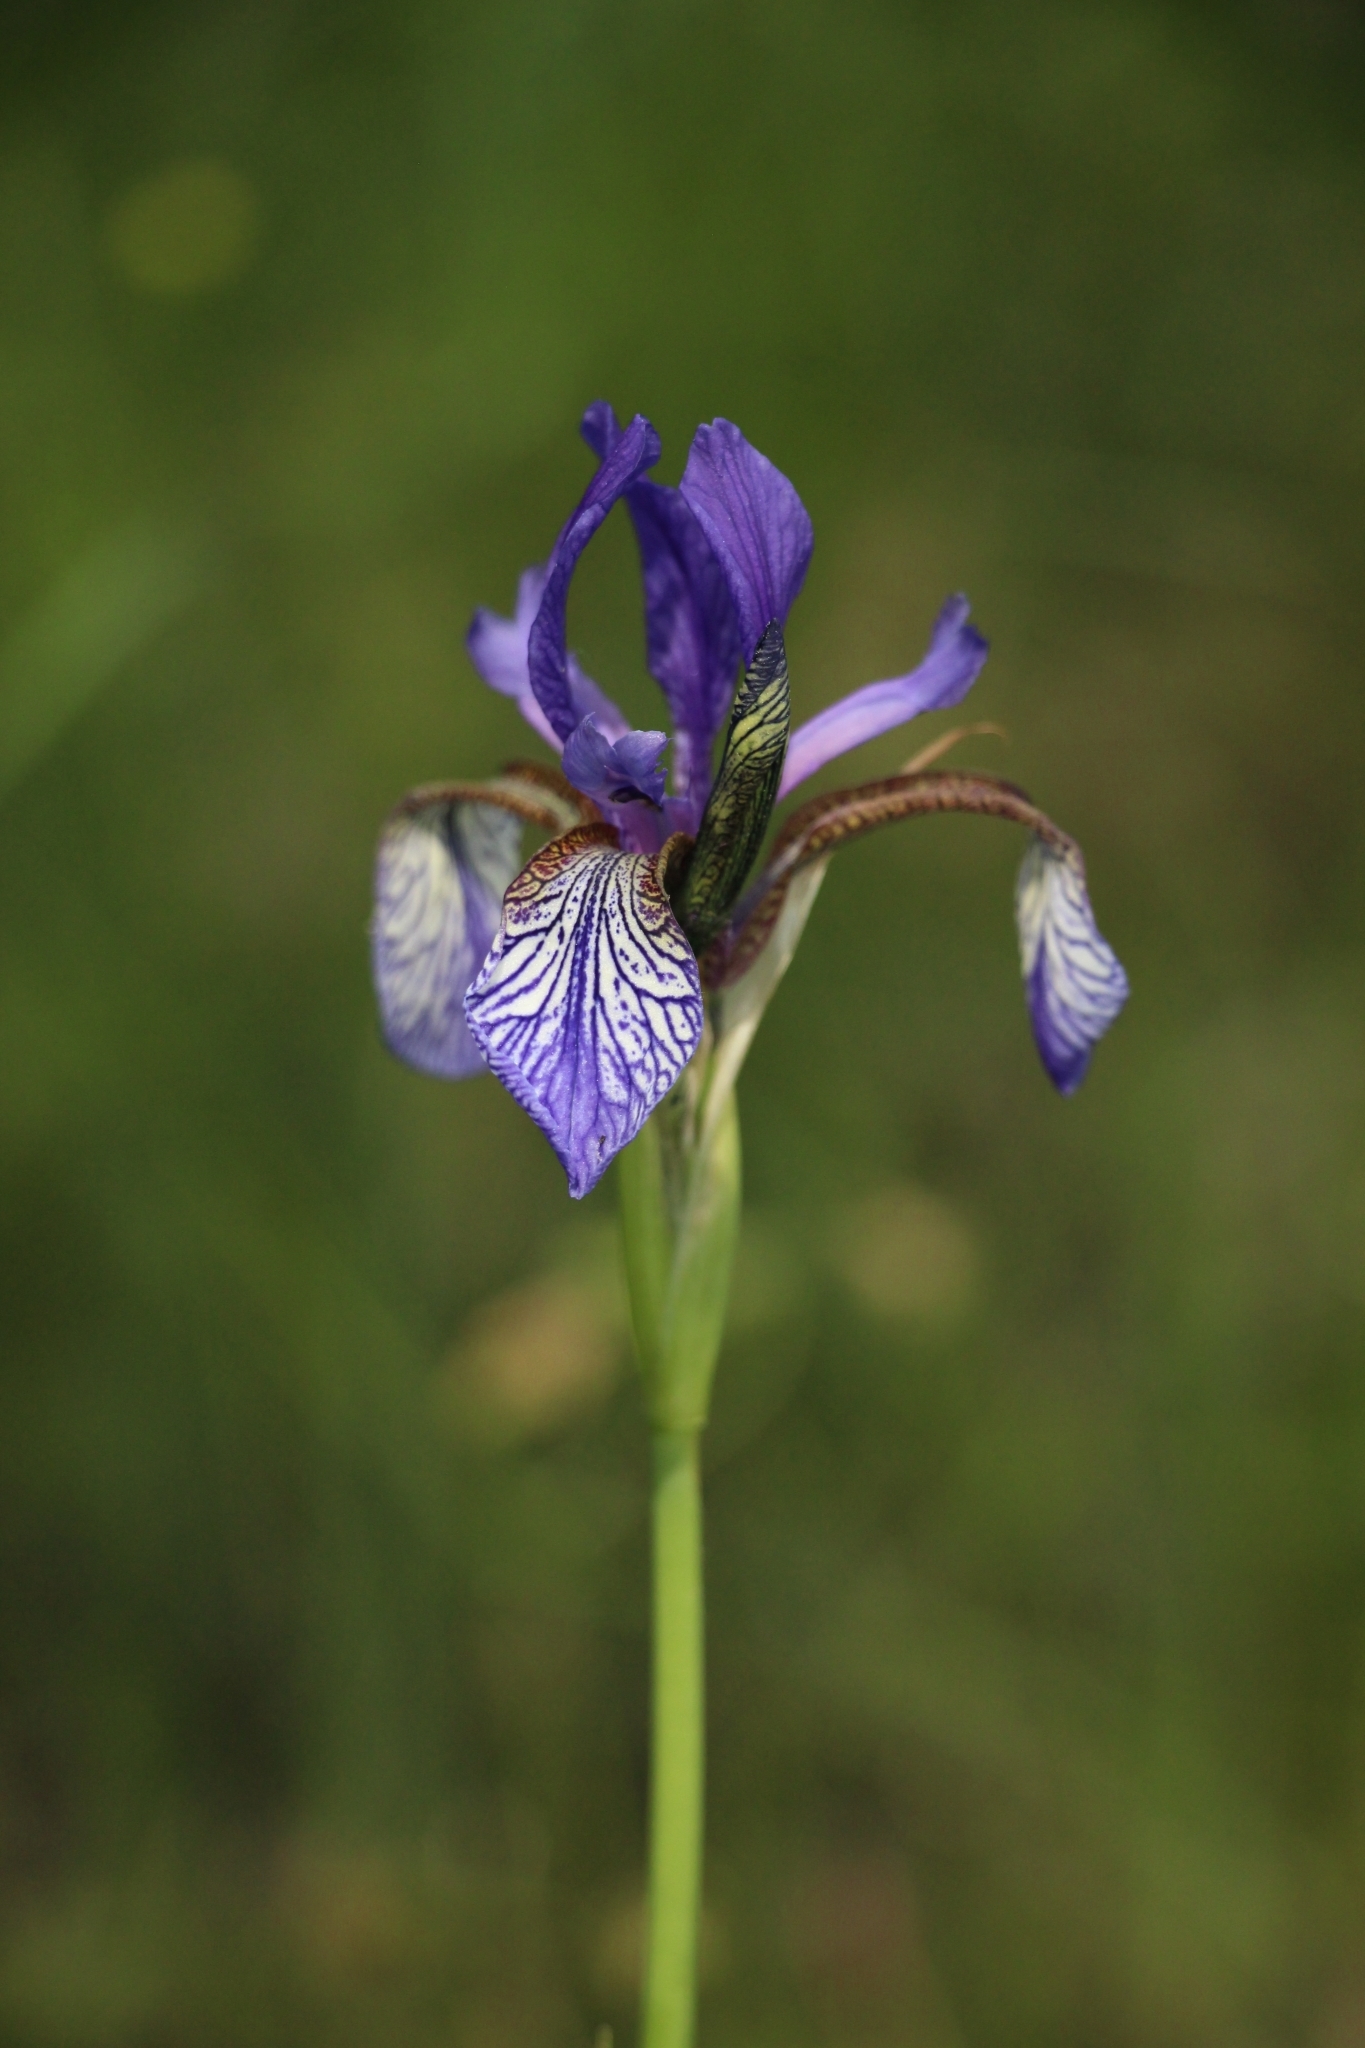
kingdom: Plantae
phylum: Tracheophyta
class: Liliopsida
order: Asparagales
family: Iridaceae
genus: Iris
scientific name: Iris sibirica
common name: Siberian iris
